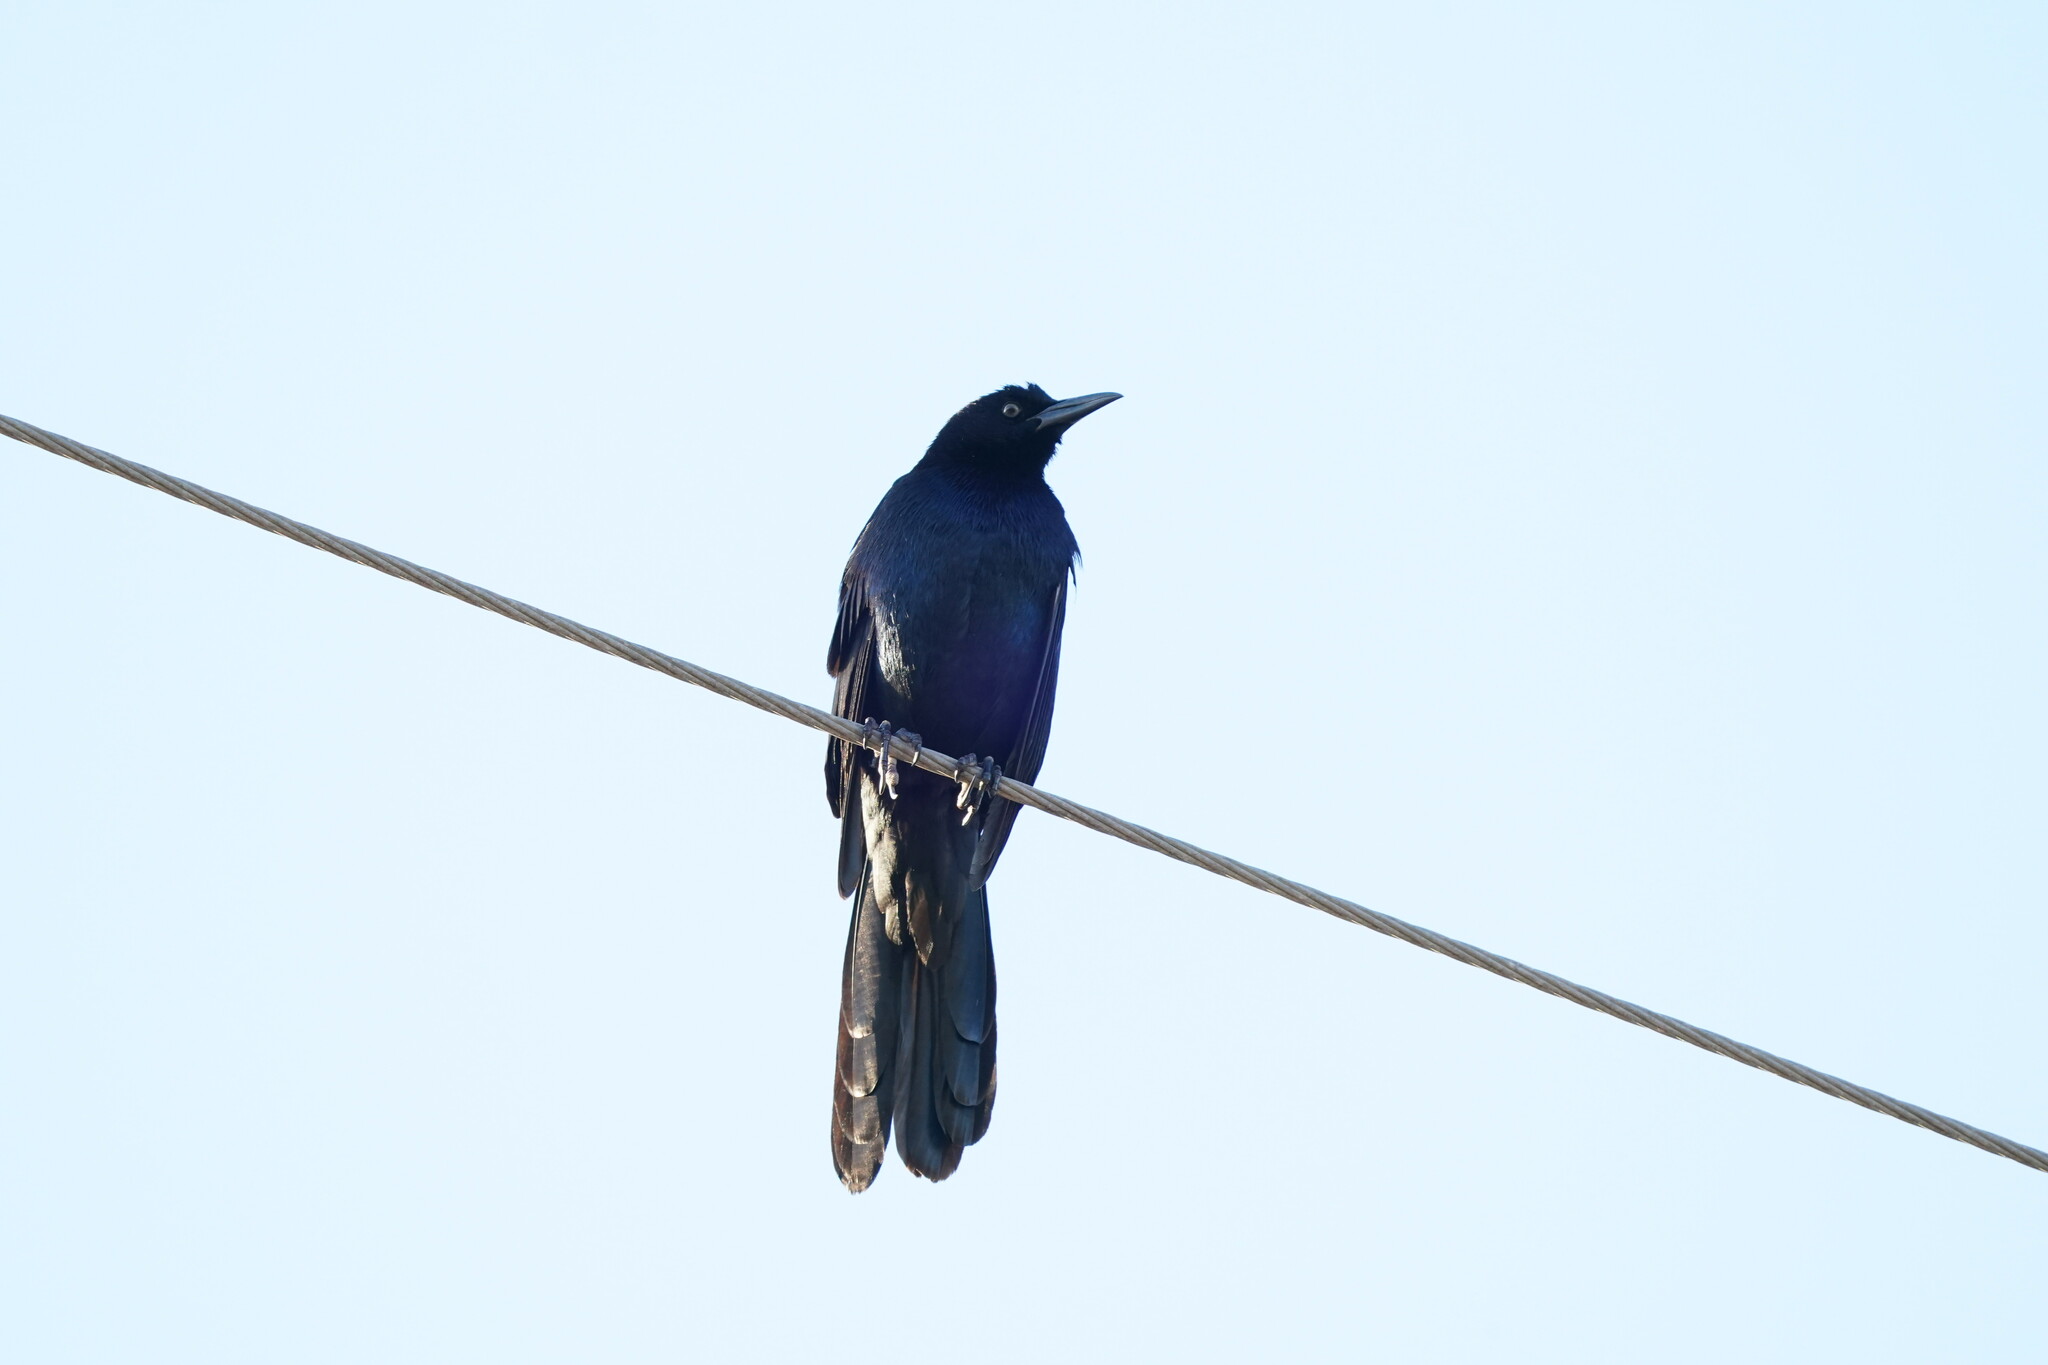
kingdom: Animalia
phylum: Chordata
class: Aves
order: Passeriformes
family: Icteridae
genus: Quiscalus
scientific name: Quiscalus major
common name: Boat-tailed grackle
